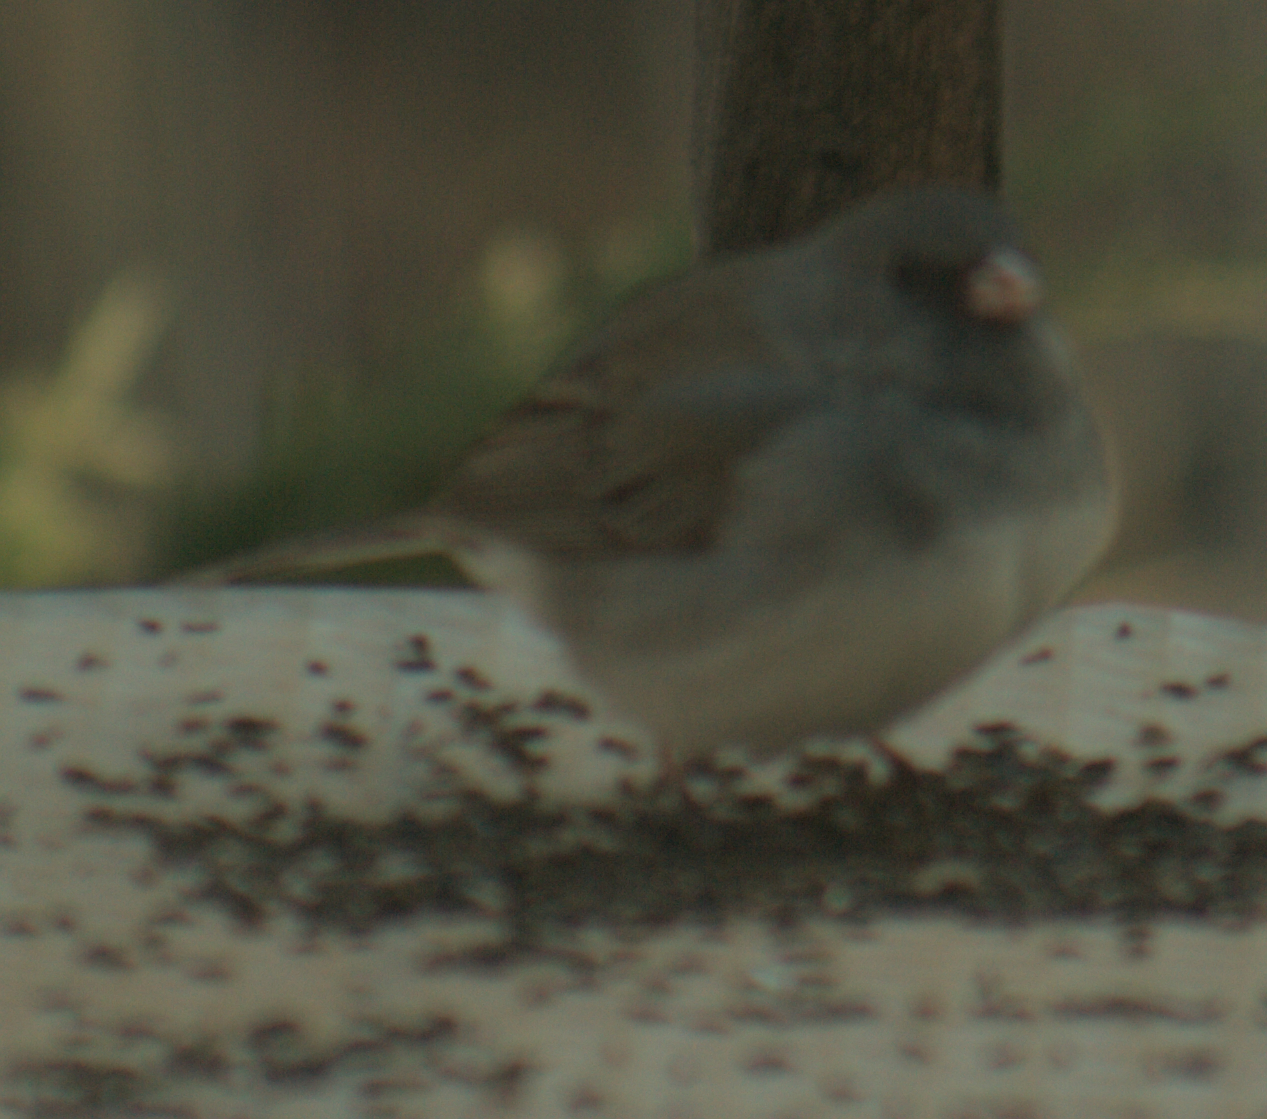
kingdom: Animalia
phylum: Chordata
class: Aves
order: Passeriformes
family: Passerellidae
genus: Junco
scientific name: Junco hyemalis
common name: Dark-eyed junco
